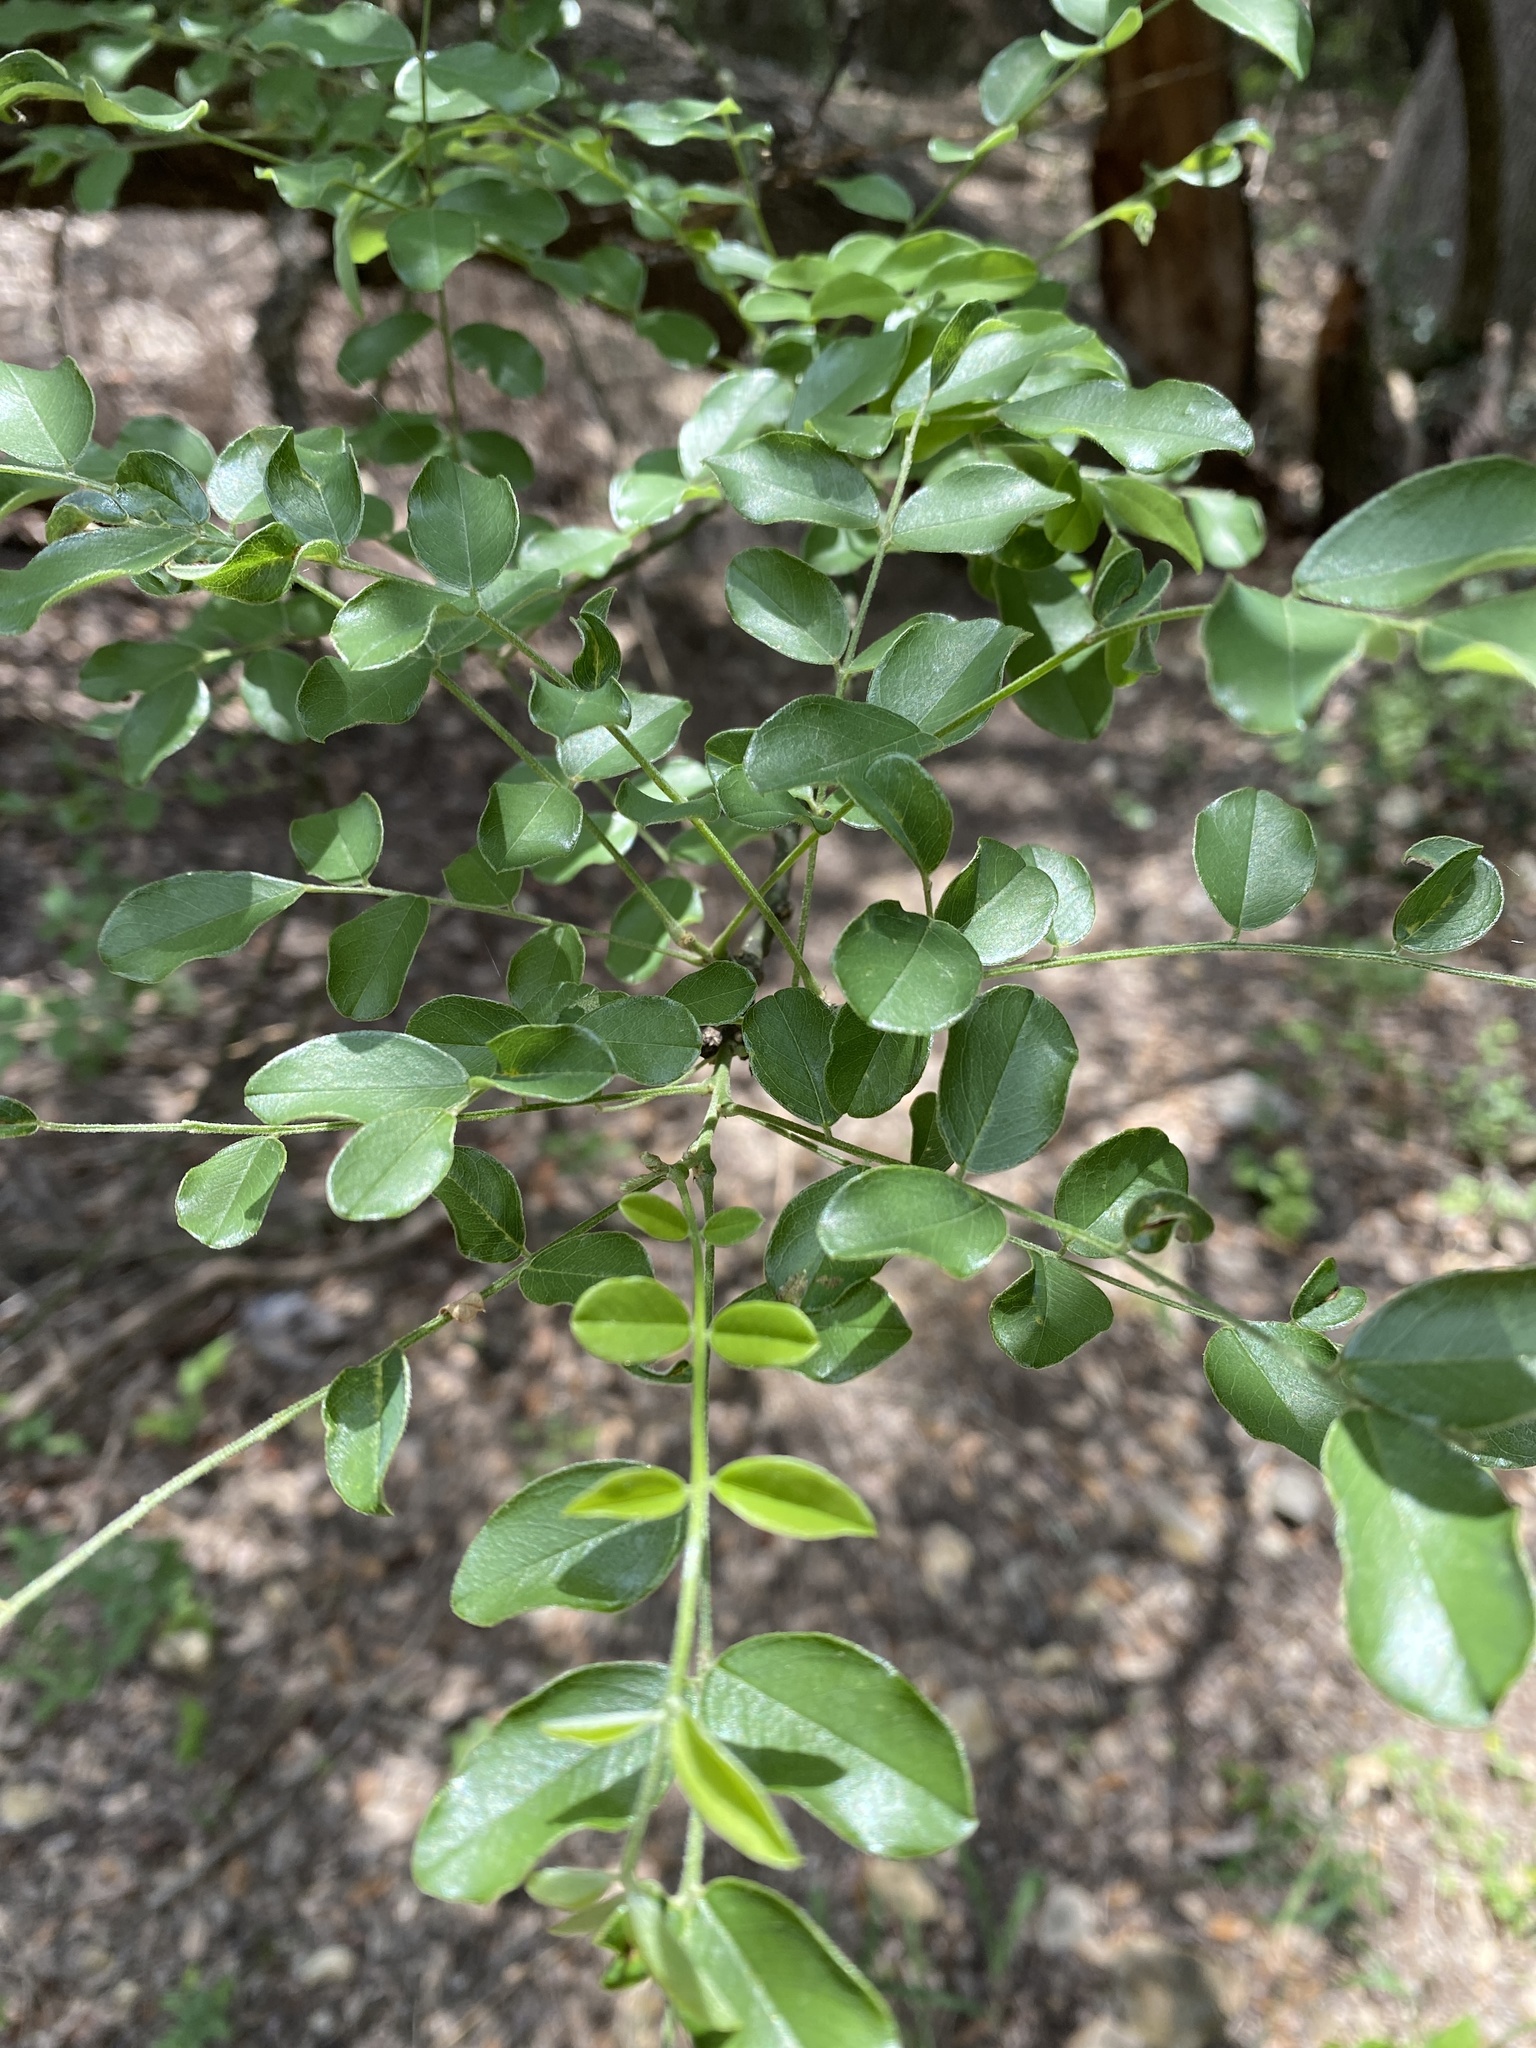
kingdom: Plantae
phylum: Tracheophyta
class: Magnoliopsida
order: Fabales
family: Fabaceae
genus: Styphnolobium
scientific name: Styphnolobium affine
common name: Texas sophora
